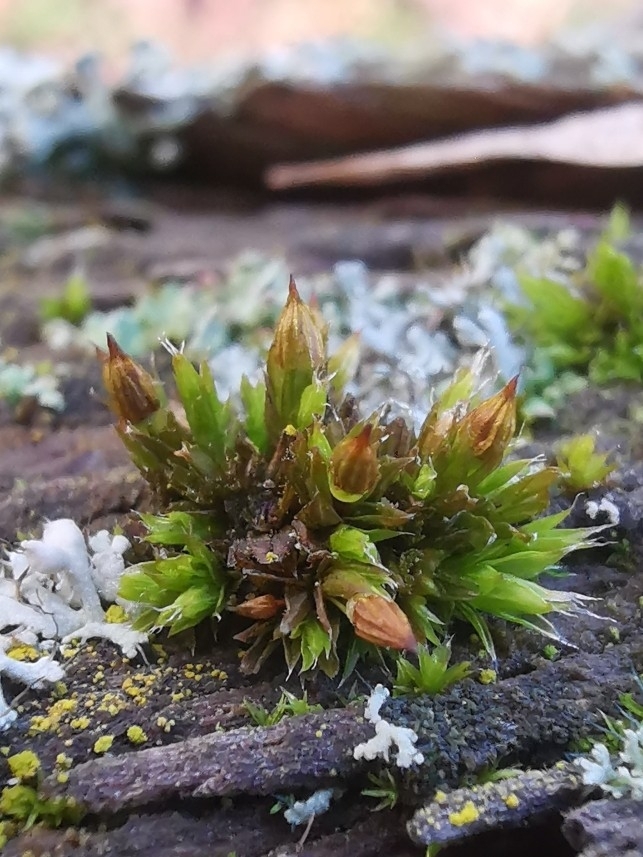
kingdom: Plantae
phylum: Bryophyta
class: Bryopsida
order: Orthotrichales
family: Orthotrichaceae
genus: Orthotrichum
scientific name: Orthotrichum diaphanum
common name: White-tipped bristle-moss
